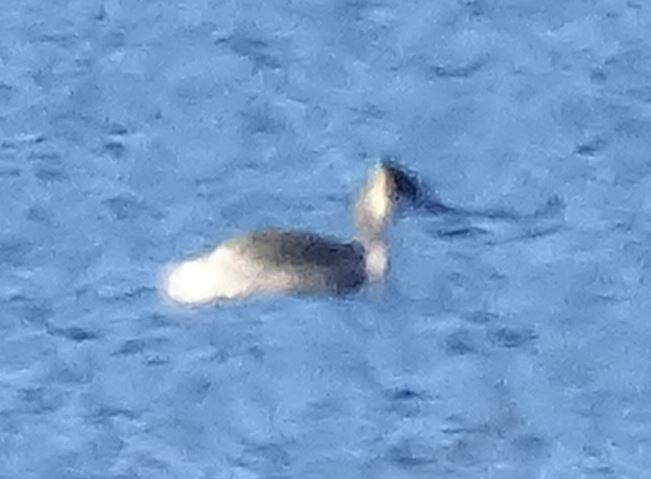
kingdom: Animalia
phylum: Chordata
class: Aves
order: Podicipediformes
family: Podicipedidae
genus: Podiceps
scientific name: Podiceps cristatus
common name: Great crested grebe
